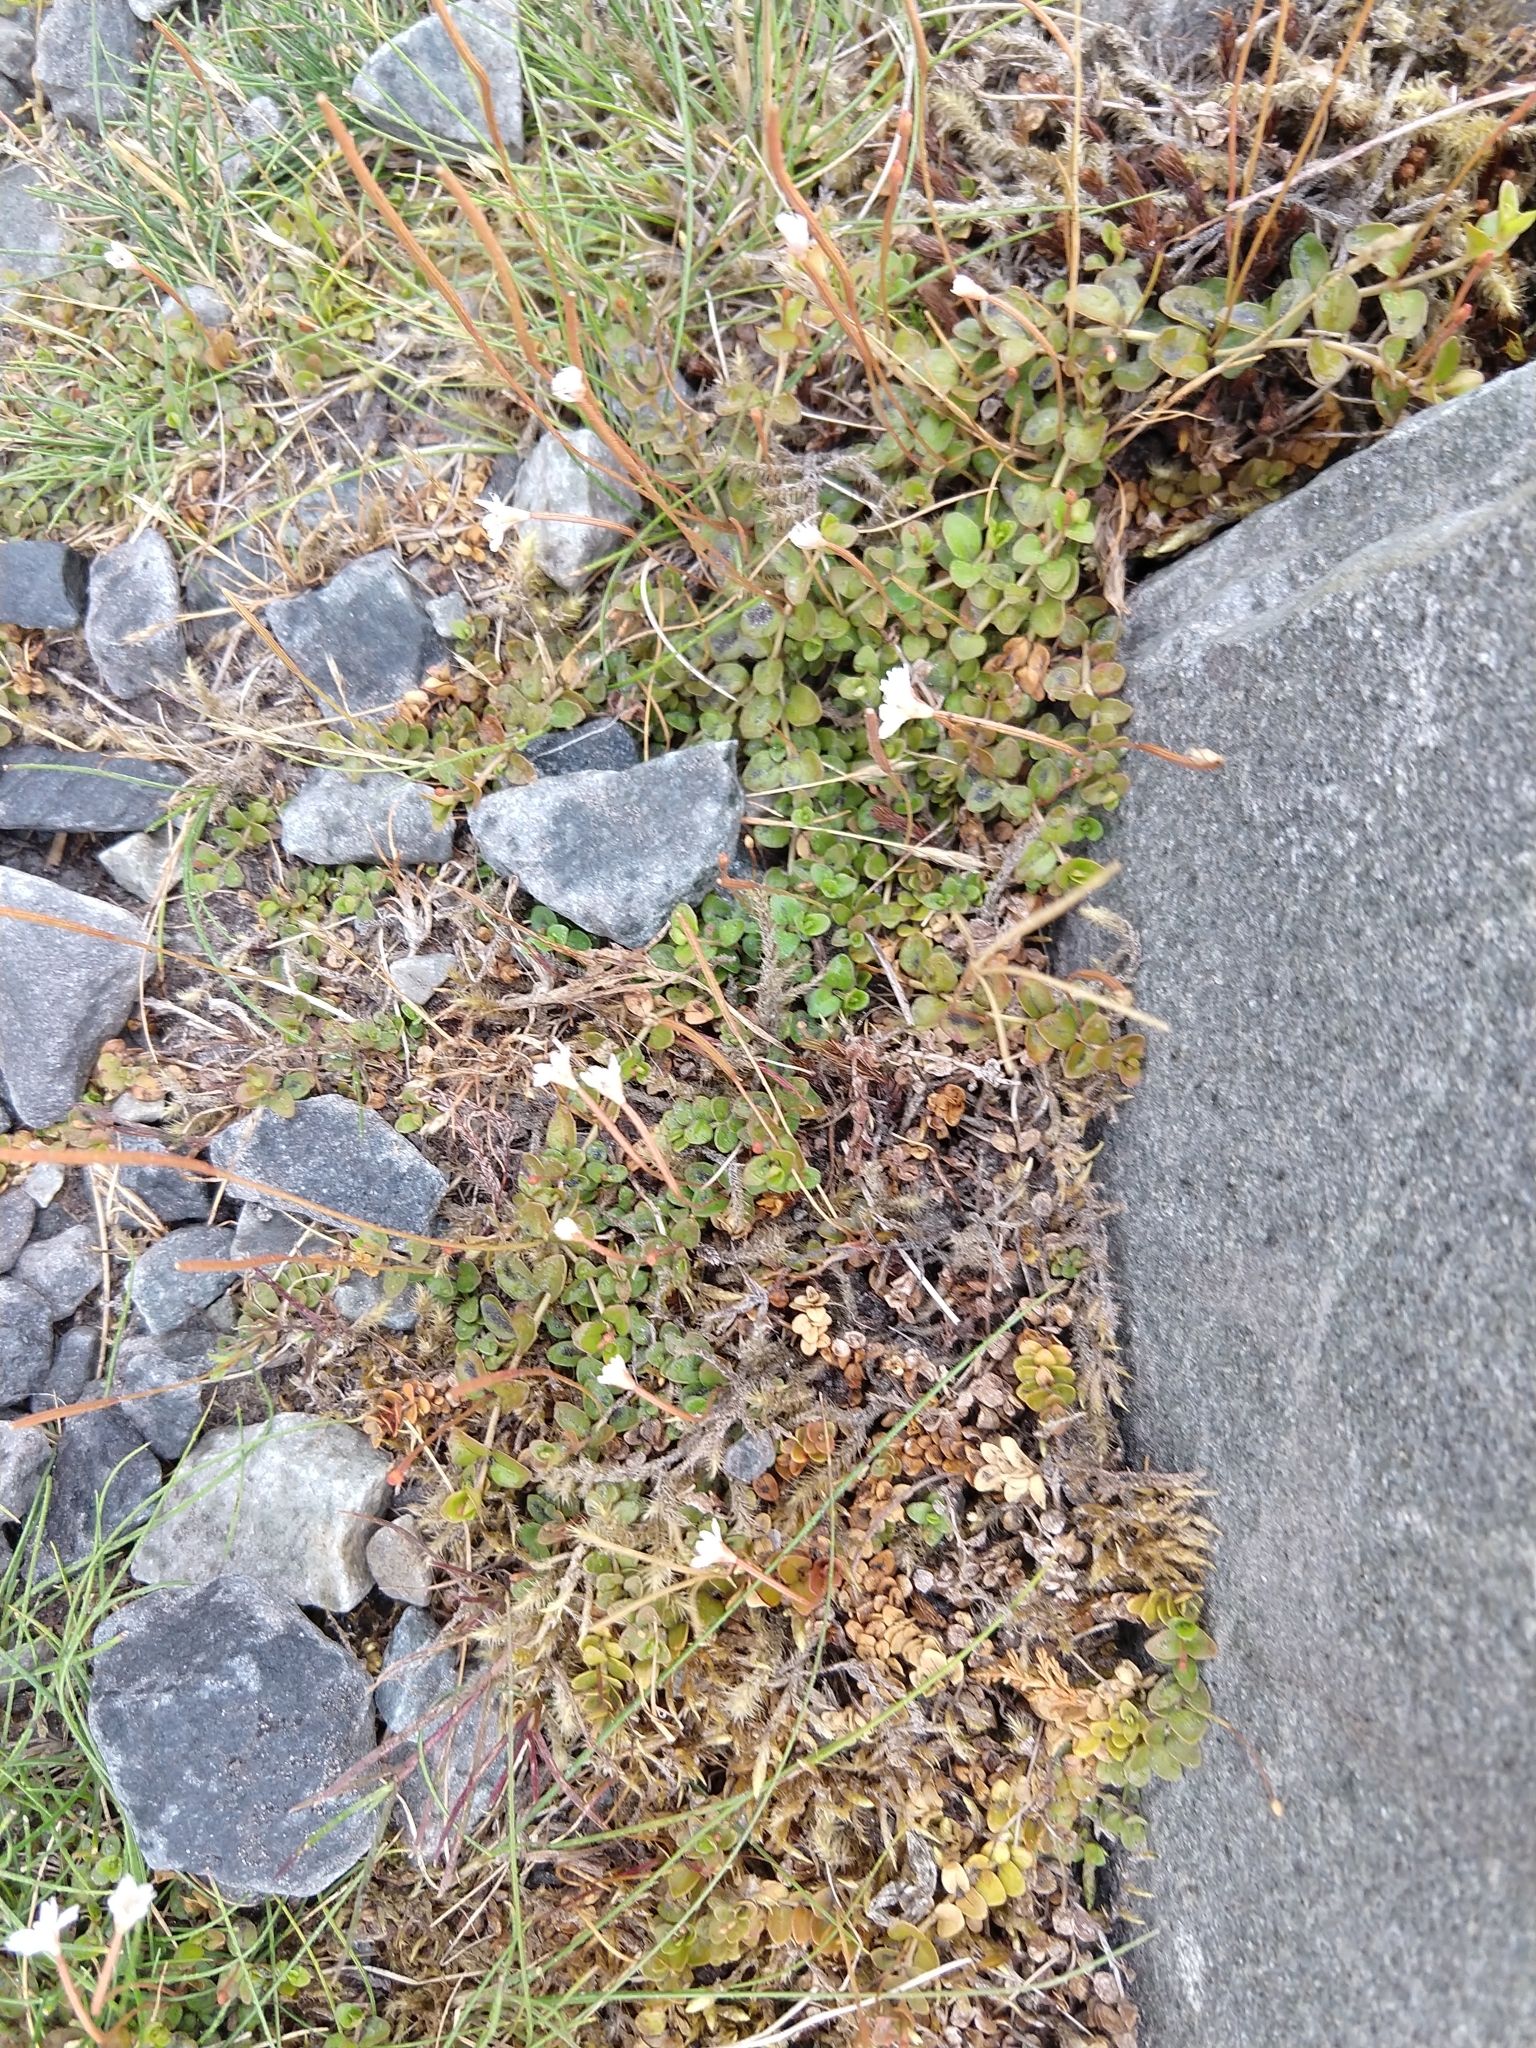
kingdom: Plantae
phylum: Tracheophyta
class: Magnoliopsida
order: Myrtales
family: Onagraceae
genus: Epilobium
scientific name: Epilobium brunnescens
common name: New zealand willowherb
